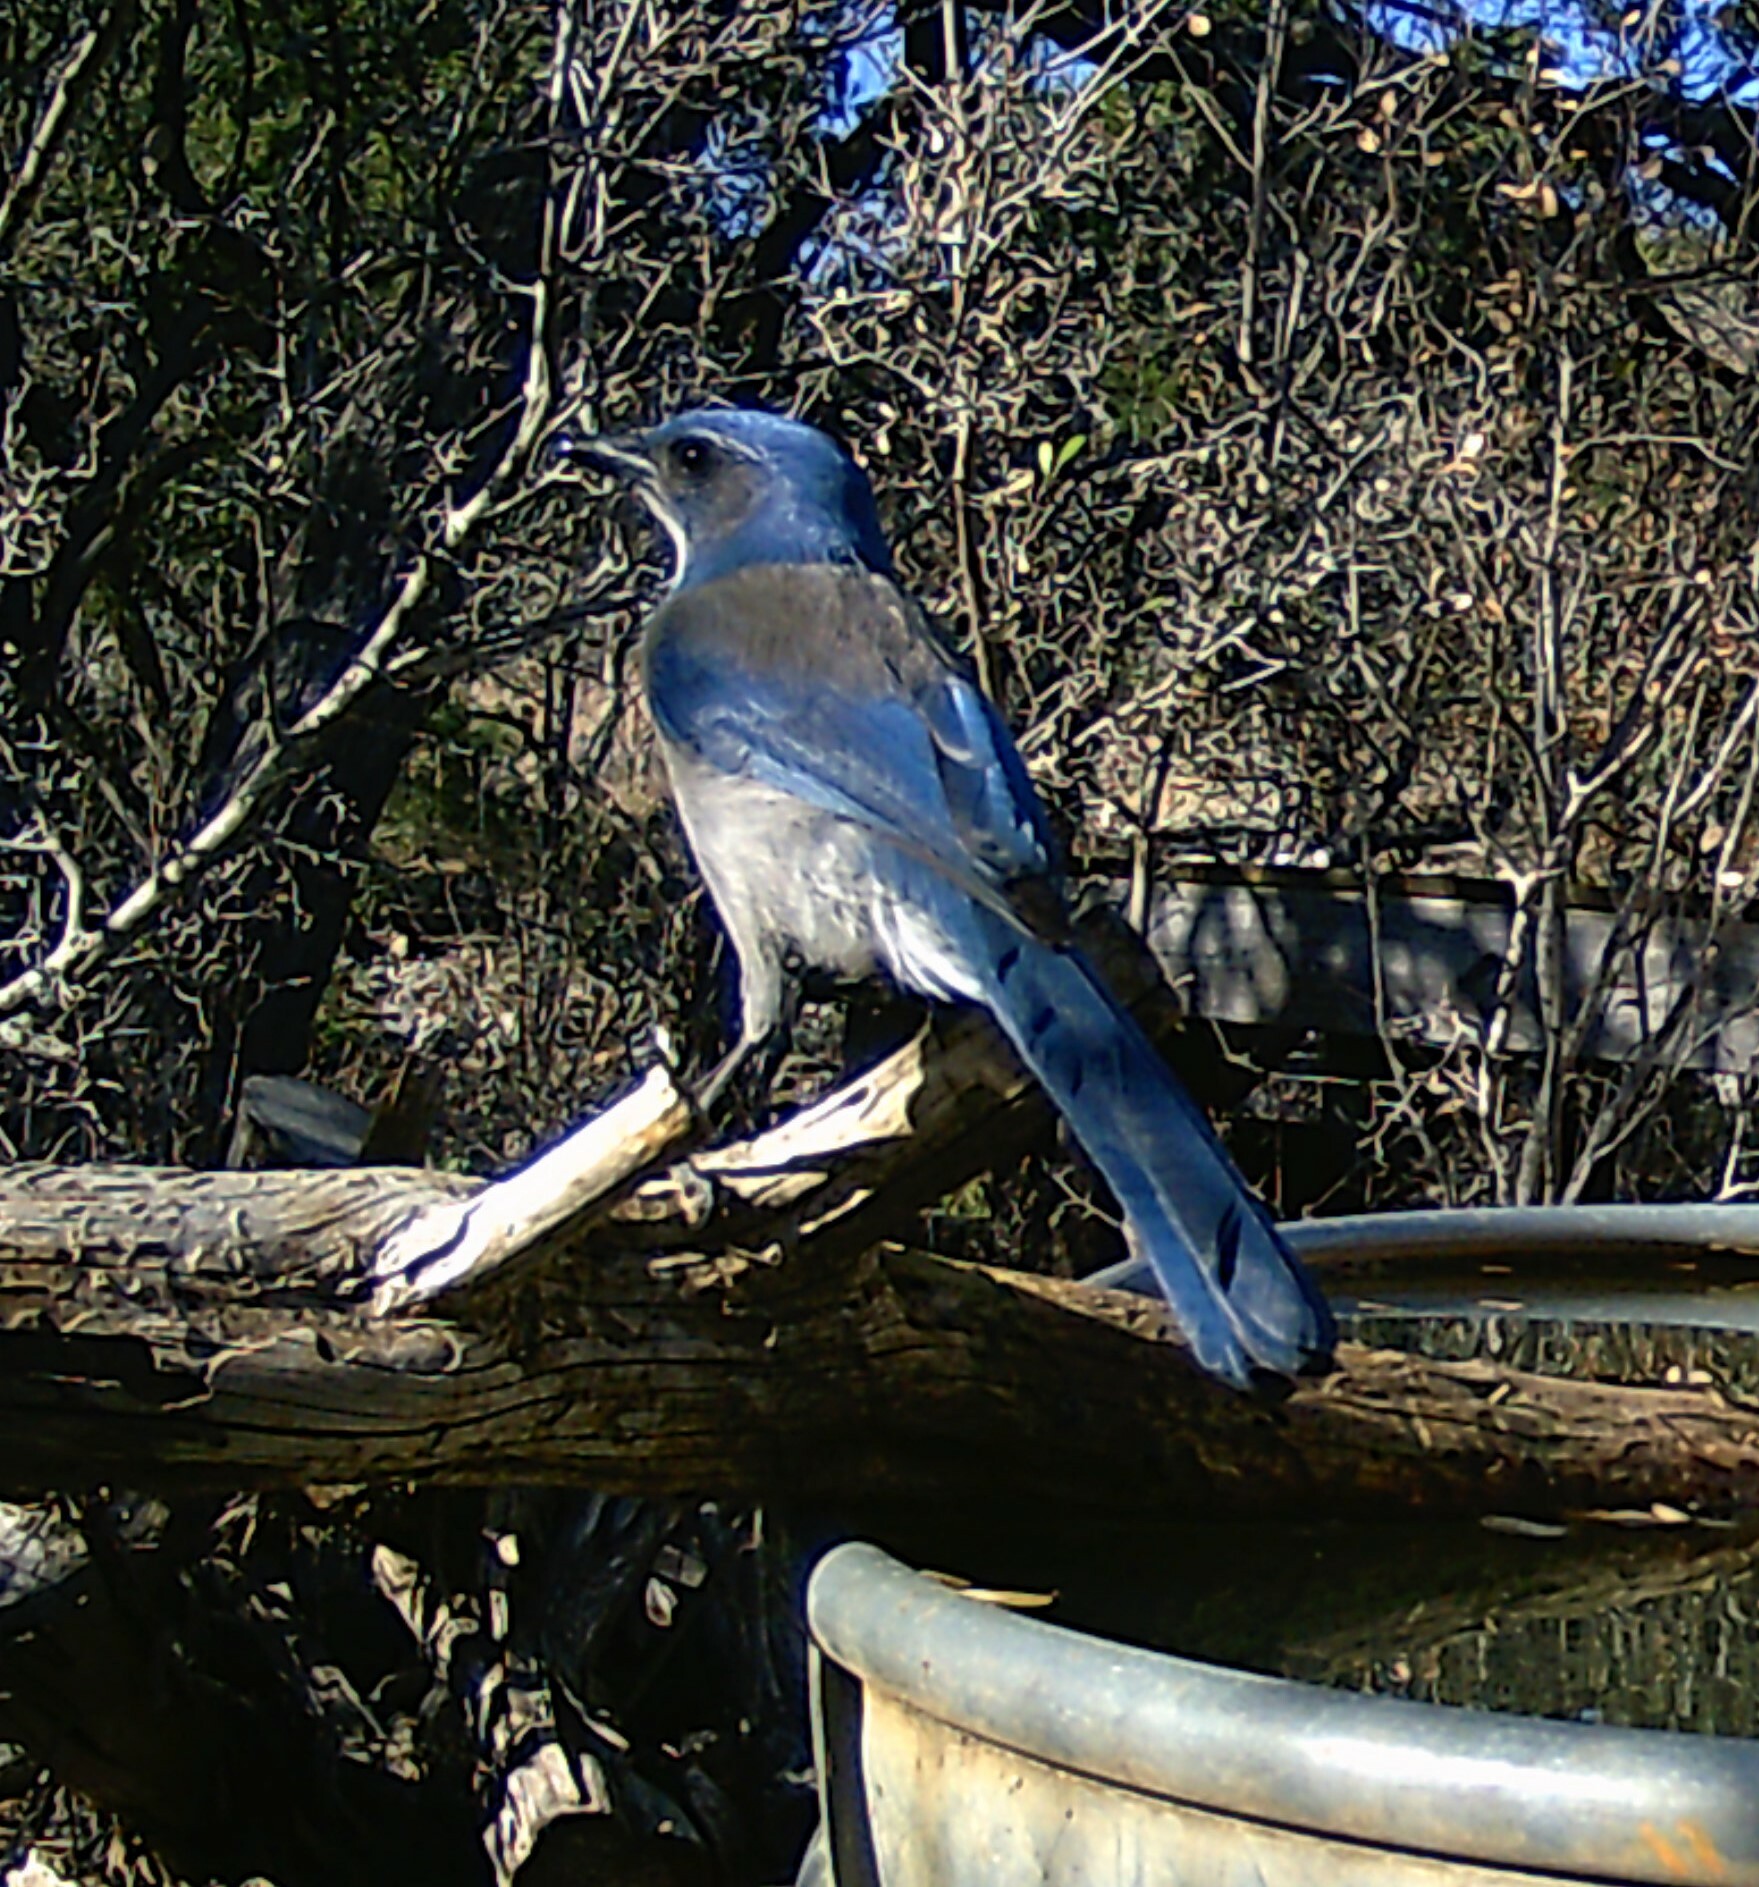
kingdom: Animalia
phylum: Chordata
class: Aves
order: Passeriformes
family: Corvidae
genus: Aphelocoma
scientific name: Aphelocoma woodhouseii
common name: Woodhouse's scrub-jay
